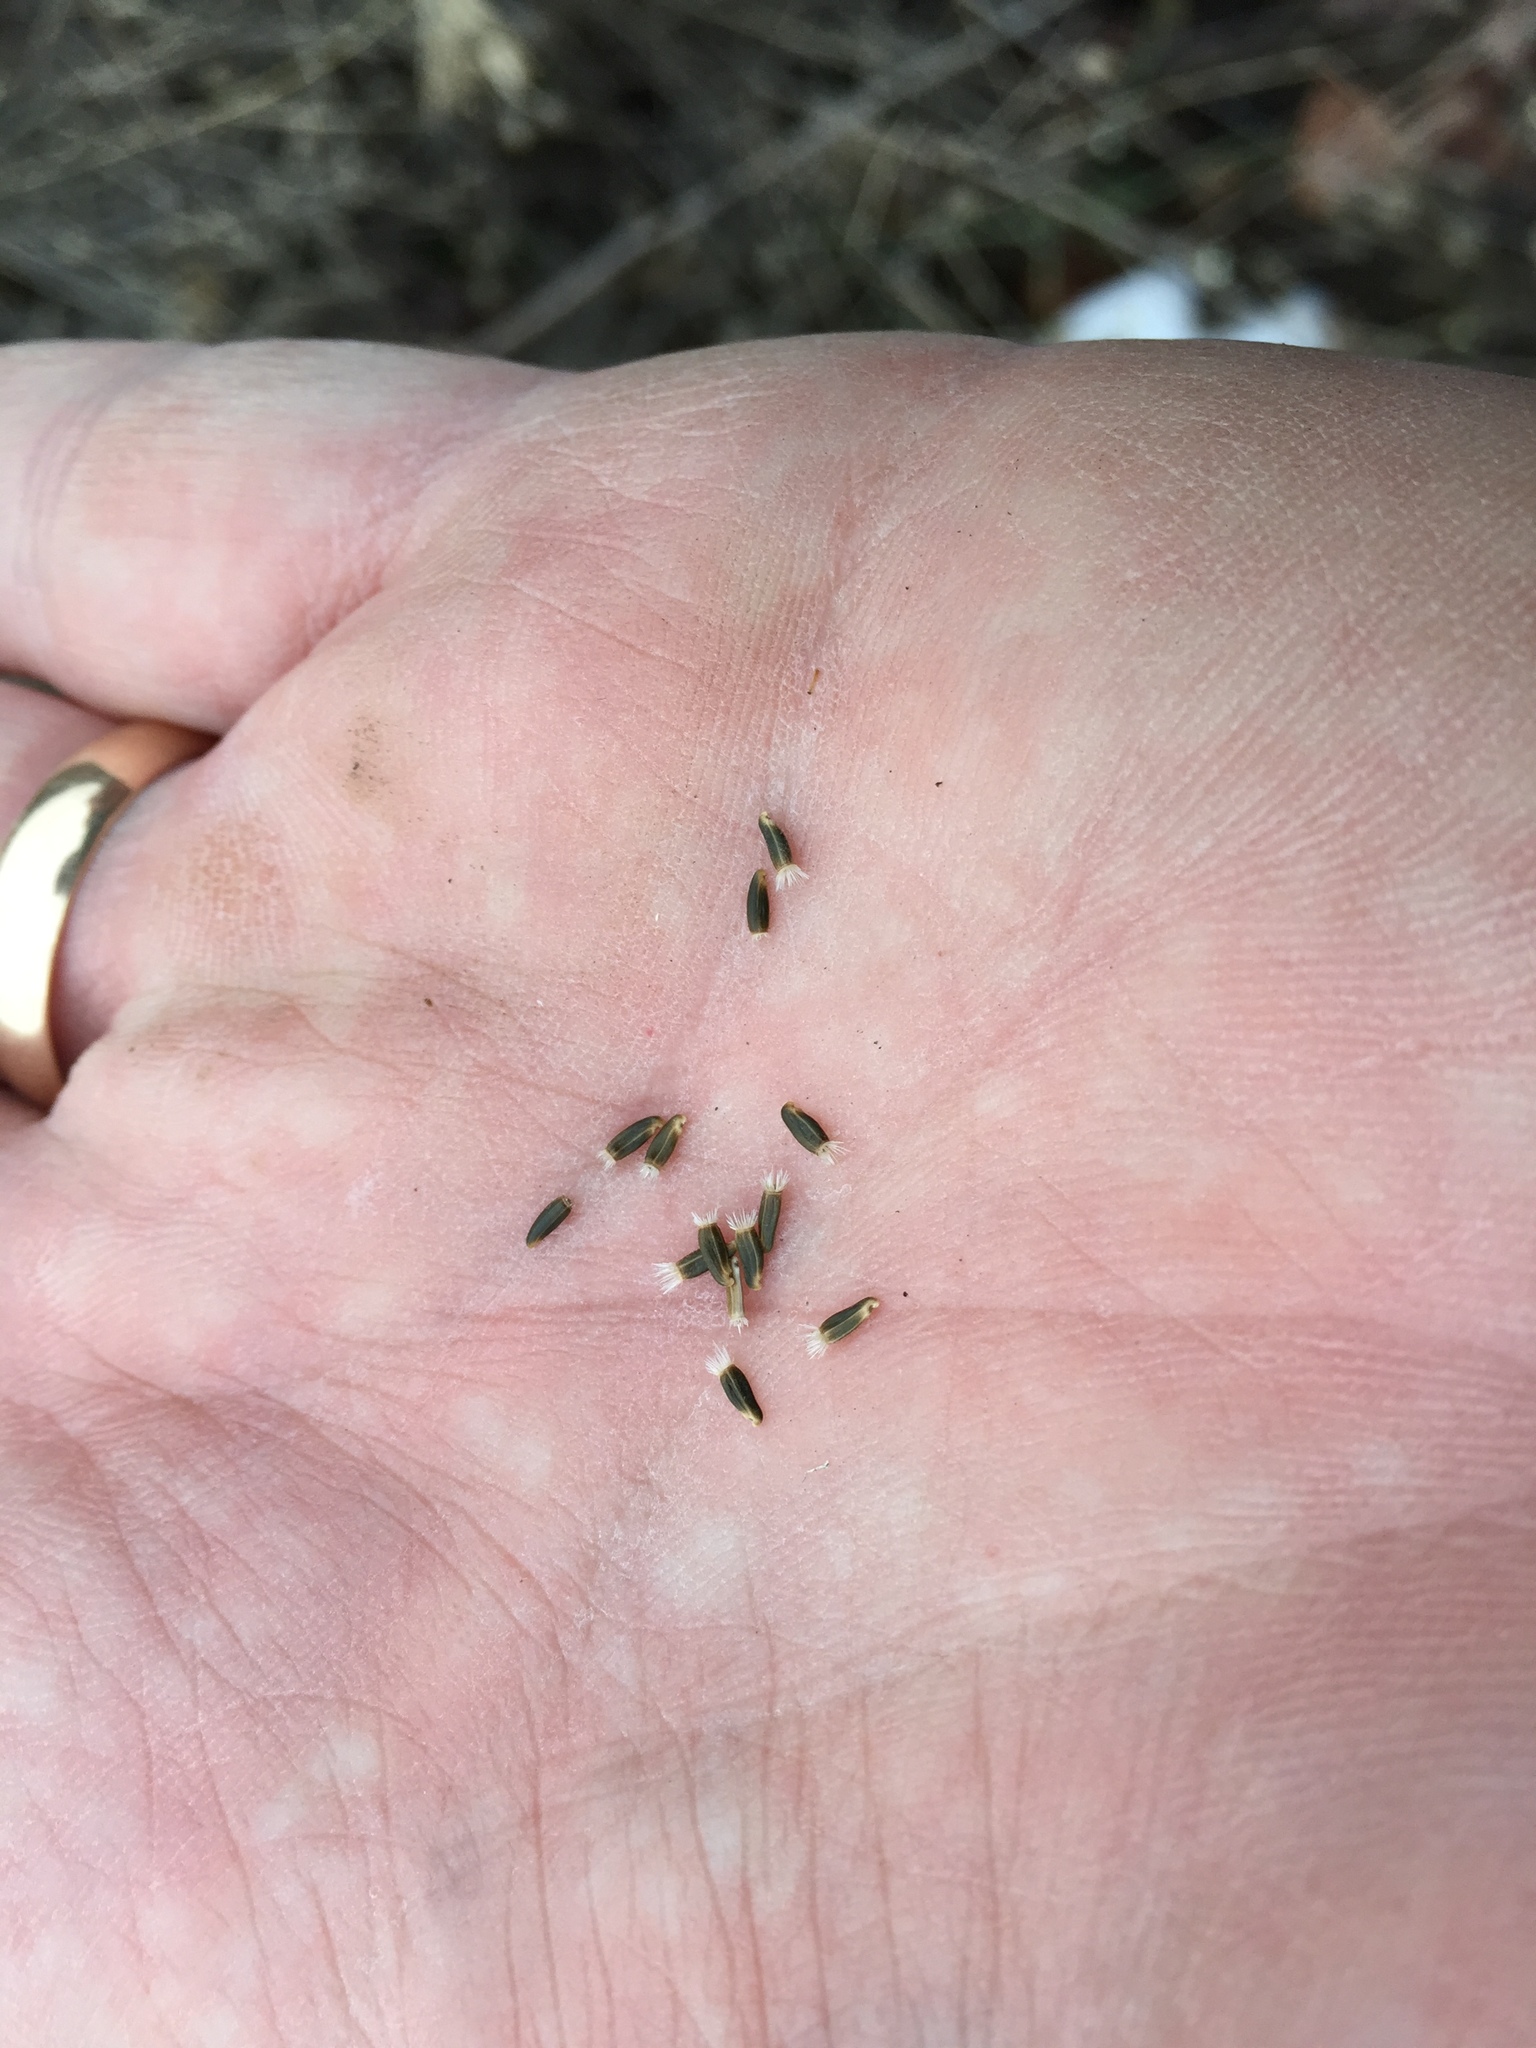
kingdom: Plantae
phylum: Tracheophyta
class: Magnoliopsida
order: Asterales
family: Asteraceae
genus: Centaurea
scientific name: Centaurea diffusa
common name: Diffuse knapweed
